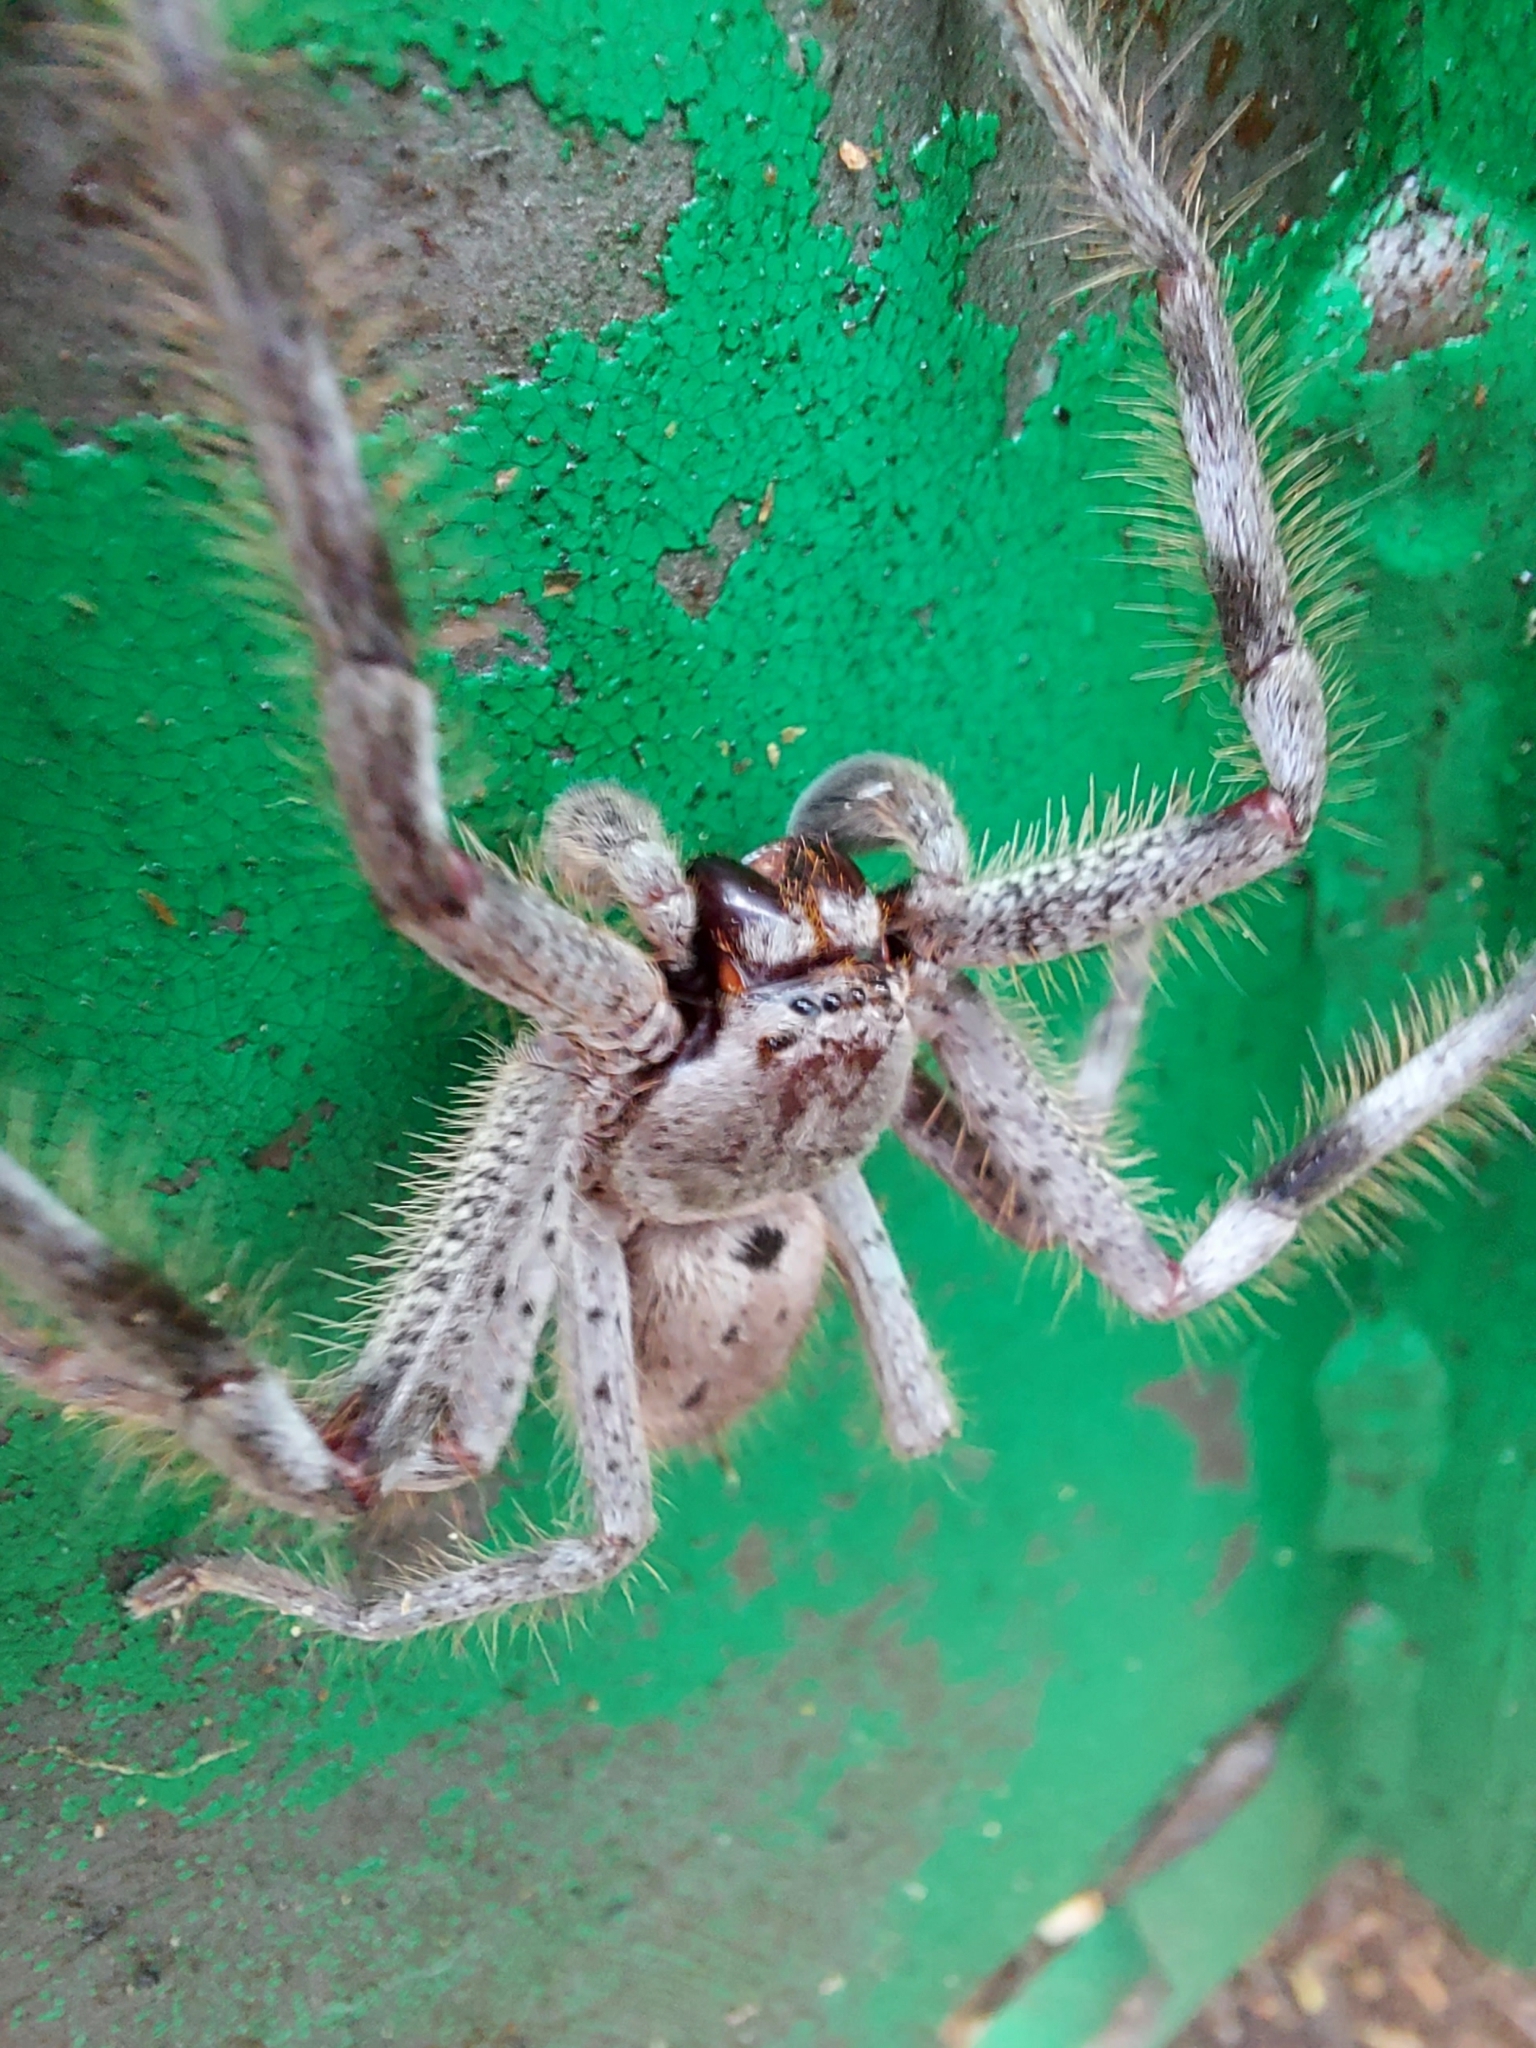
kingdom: Animalia
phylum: Arthropoda
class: Arachnida
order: Araneae
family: Sparassidae
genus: Isopeda
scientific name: Isopeda montana
